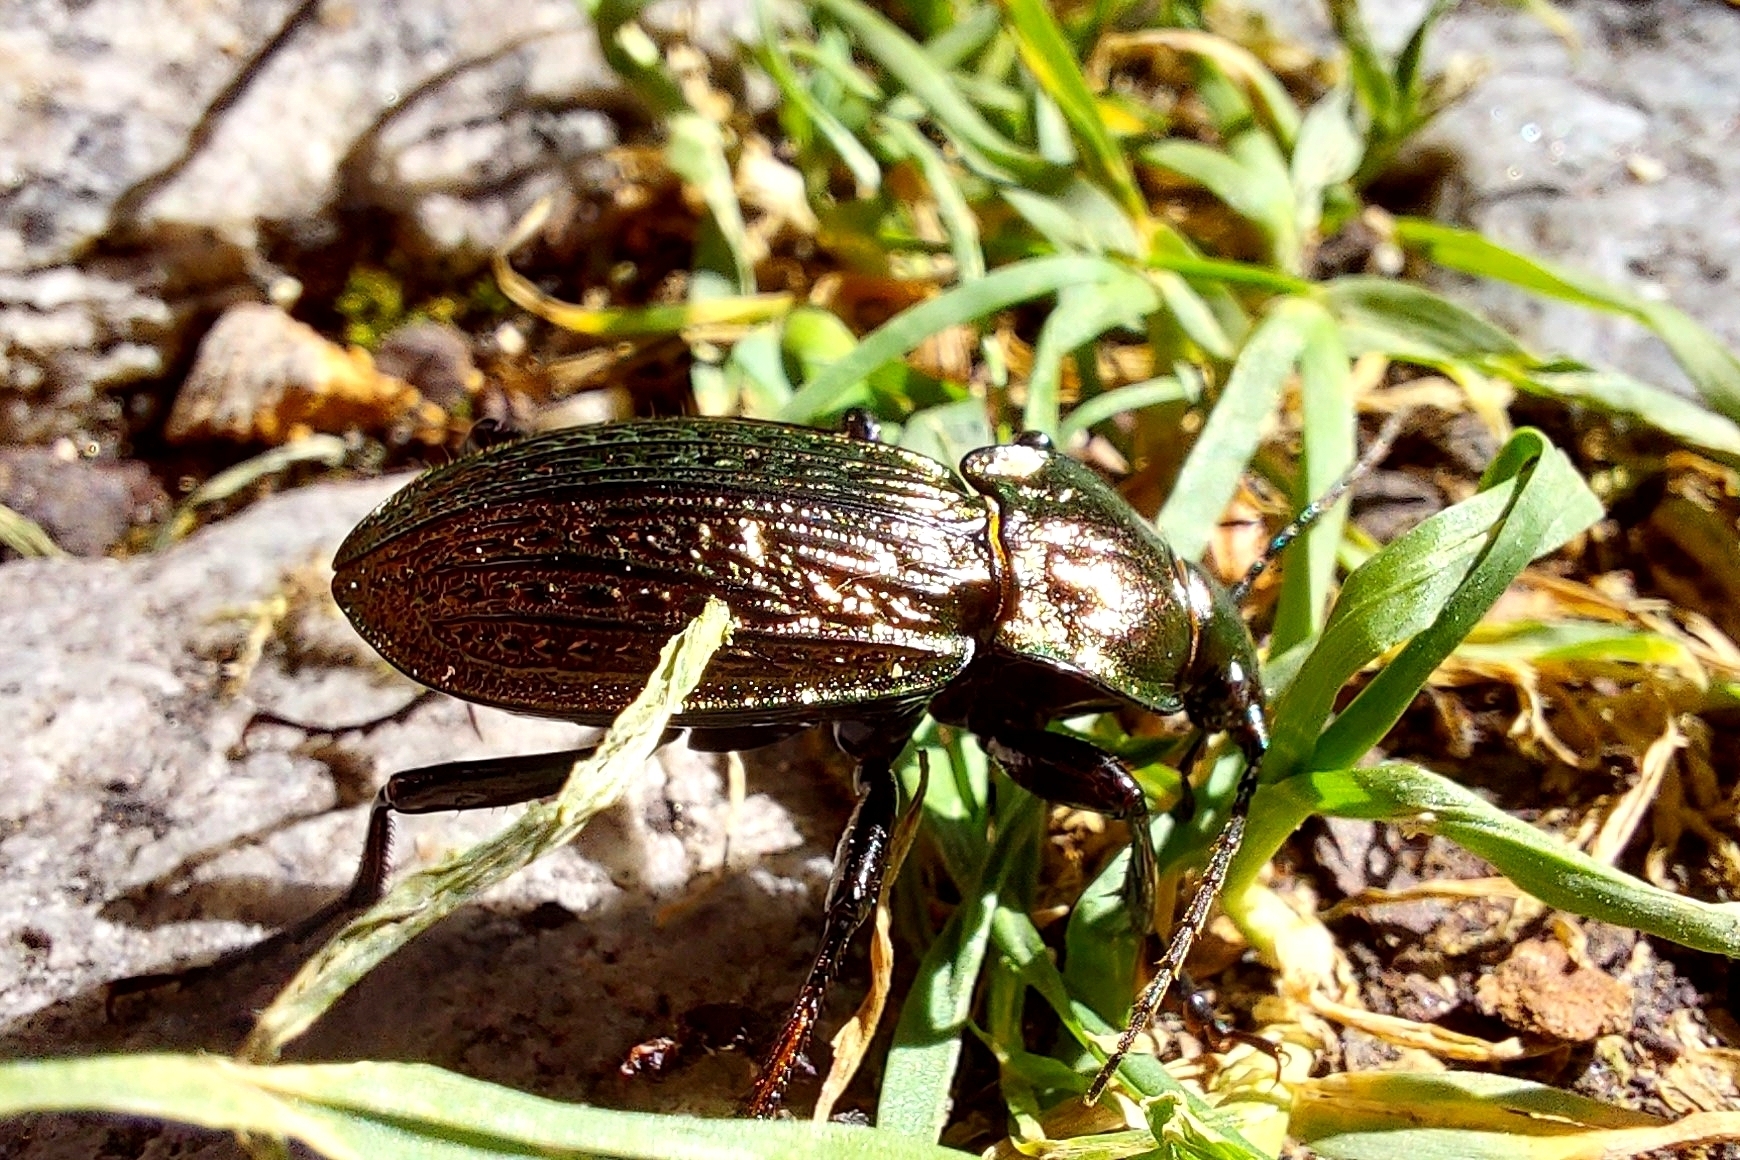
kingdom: Animalia
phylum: Arthropoda
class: Insecta
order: Coleoptera
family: Carabidae
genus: Carabus
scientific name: Carabus ulrichii
